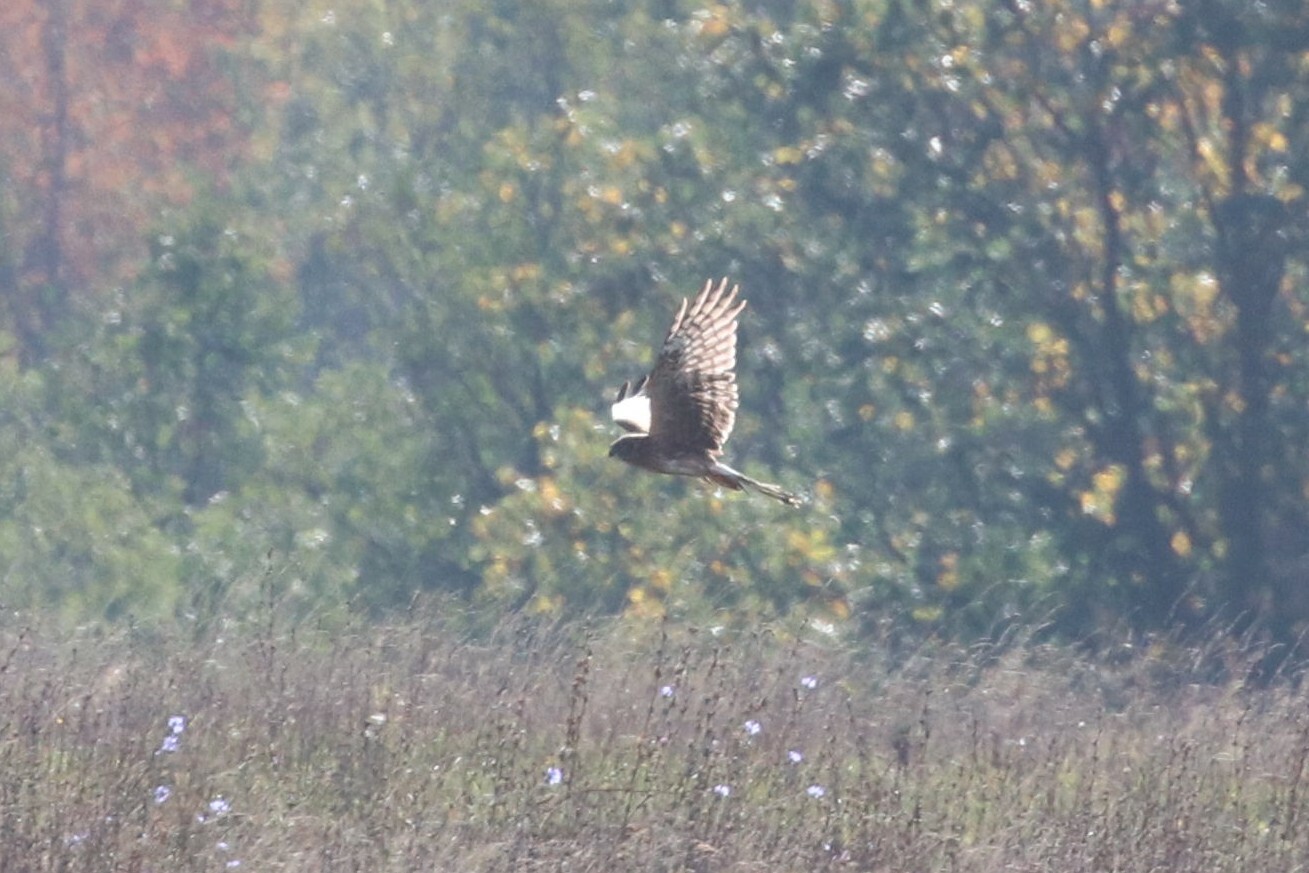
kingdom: Animalia
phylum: Chordata
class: Aves
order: Accipitriformes
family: Accipitridae
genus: Circus
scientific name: Circus cyaneus
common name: Hen harrier
